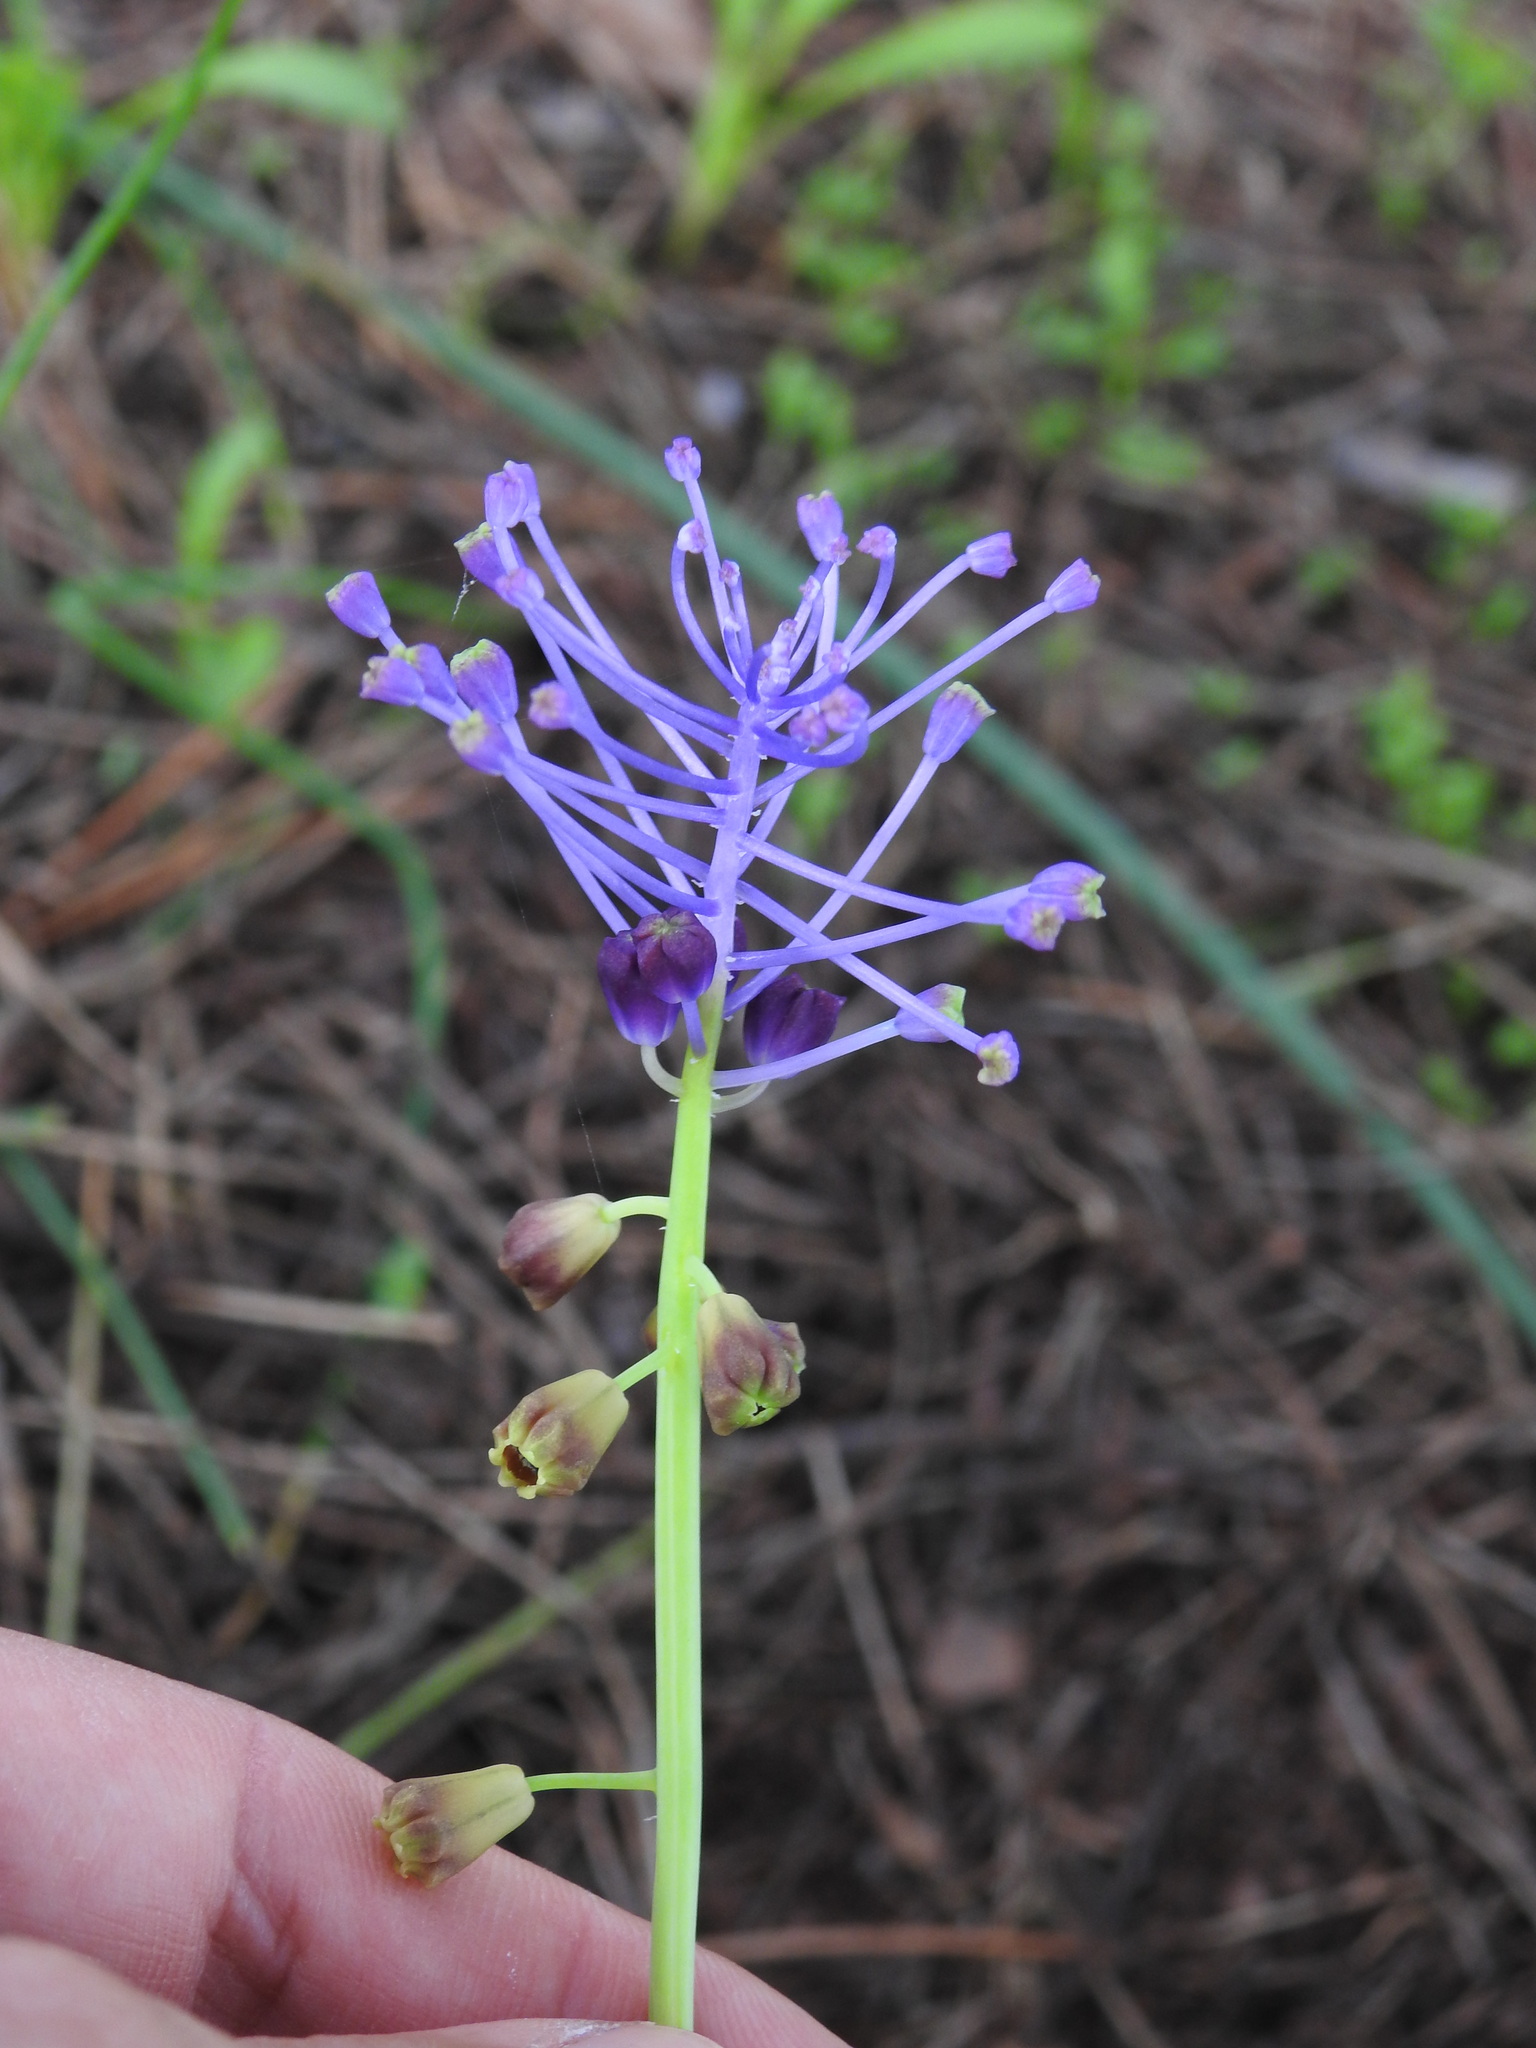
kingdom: Plantae
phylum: Tracheophyta
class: Liliopsida
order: Asparagales
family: Asparagaceae
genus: Muscari
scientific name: Muscari comosum
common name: Tassel hyacinth
